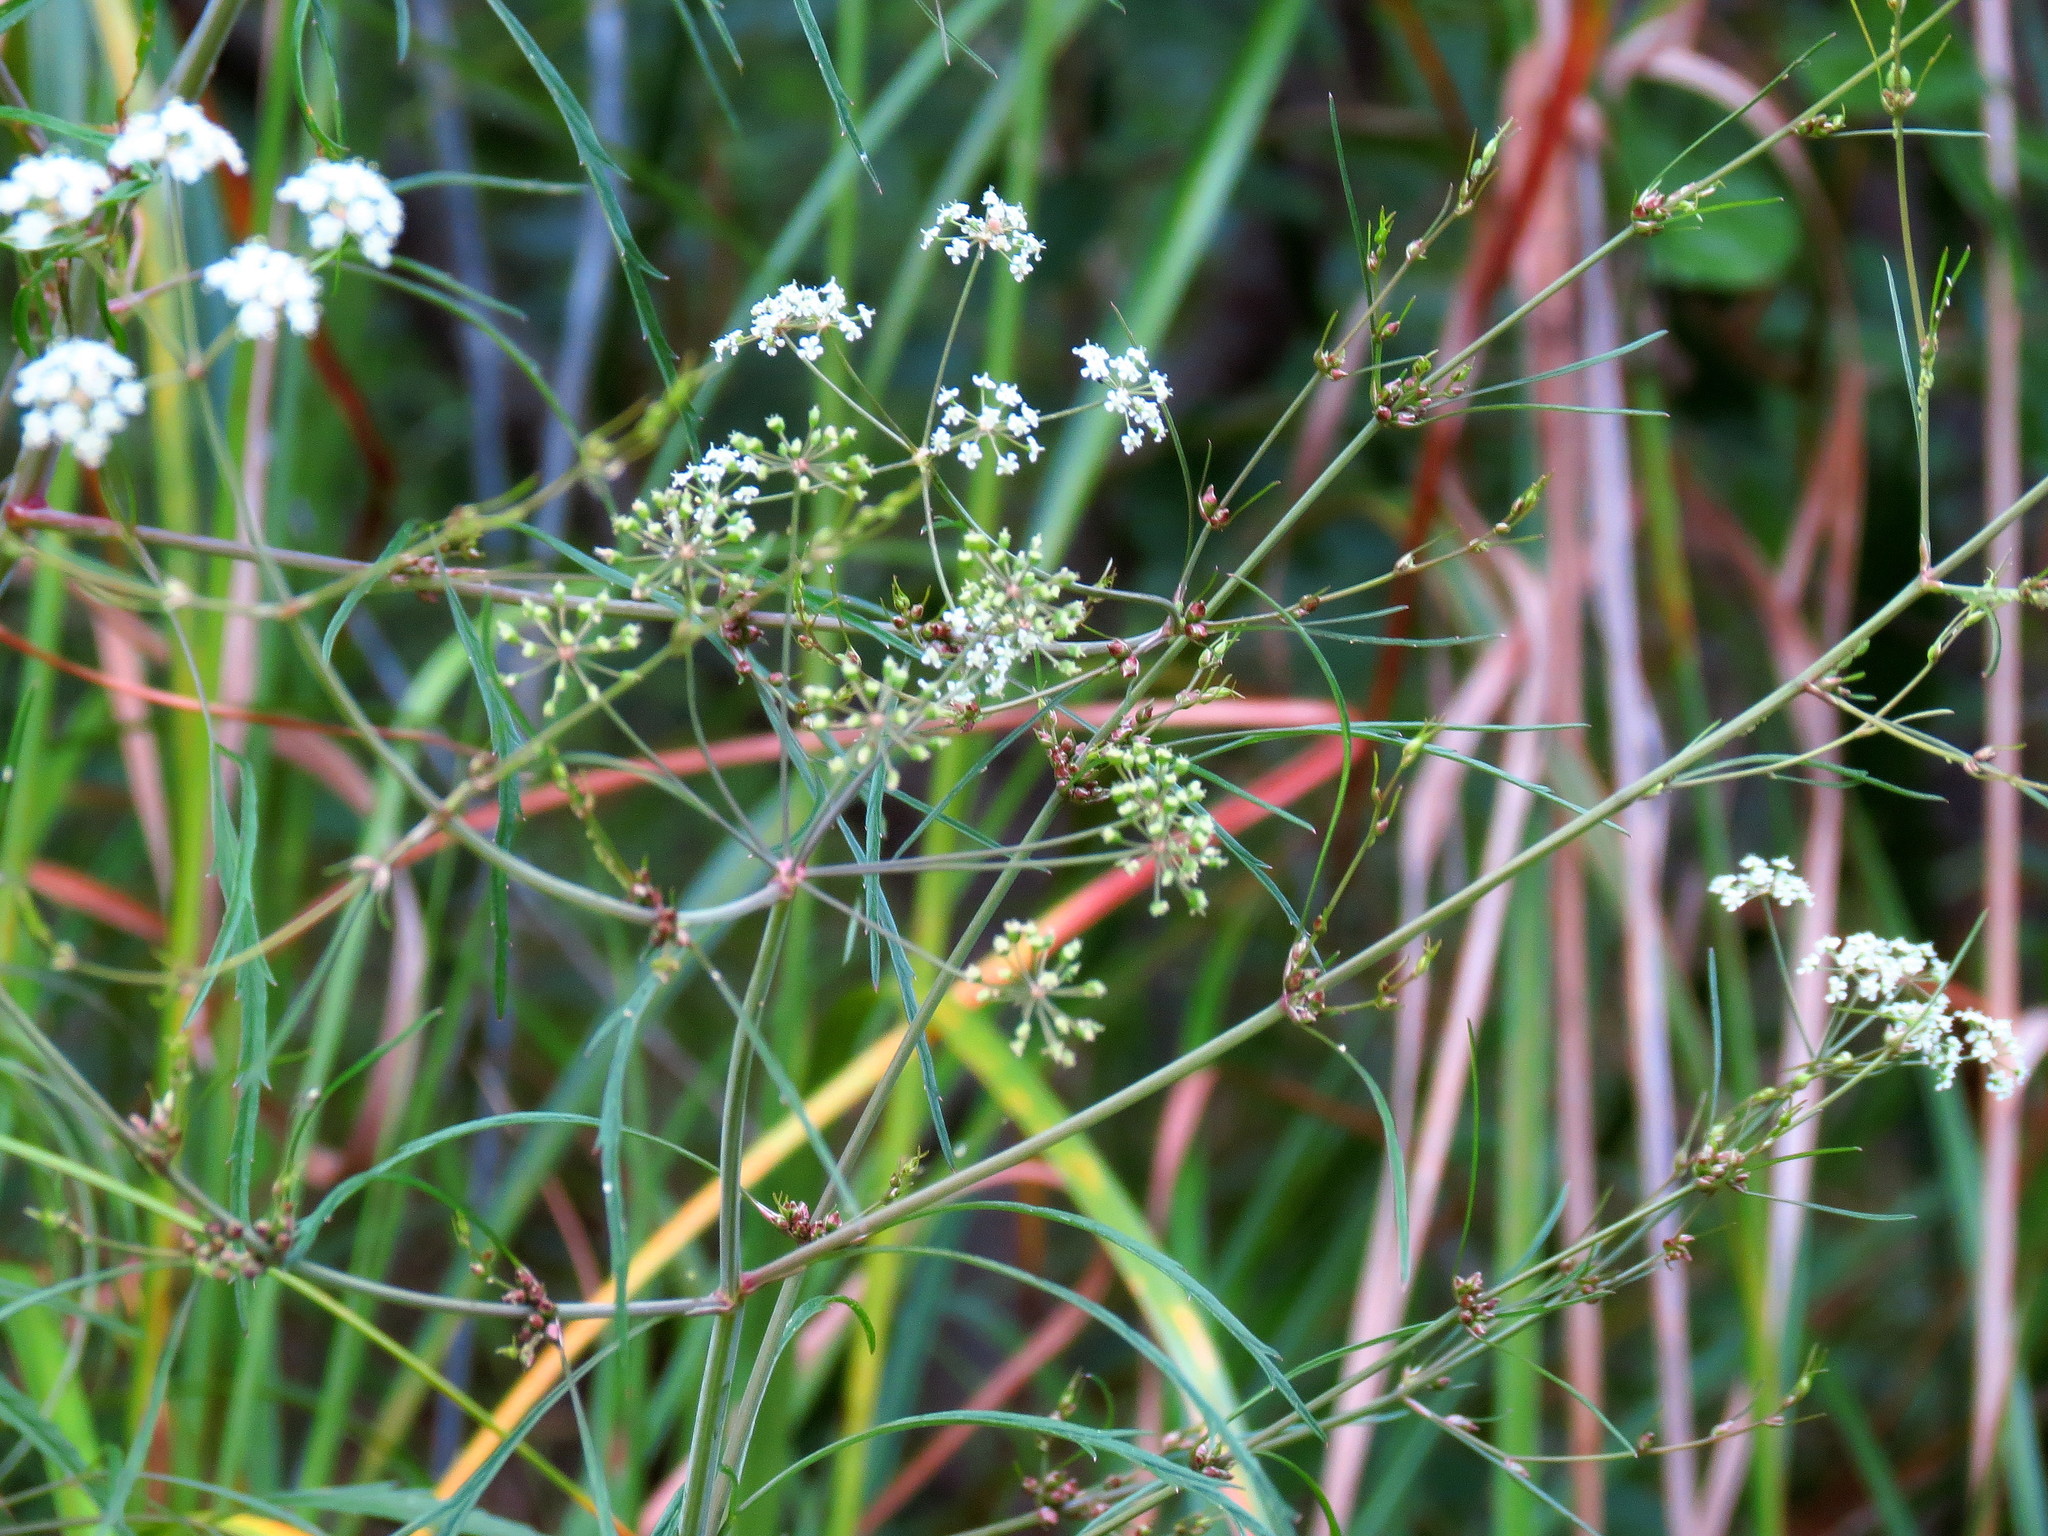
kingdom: Plantae
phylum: Tracheophyta
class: Magnoliopsida
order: Apiales
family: Apiaceae
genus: Cicuta
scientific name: Cicuta bulbifera
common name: Bulb-bearing water-hemlock
